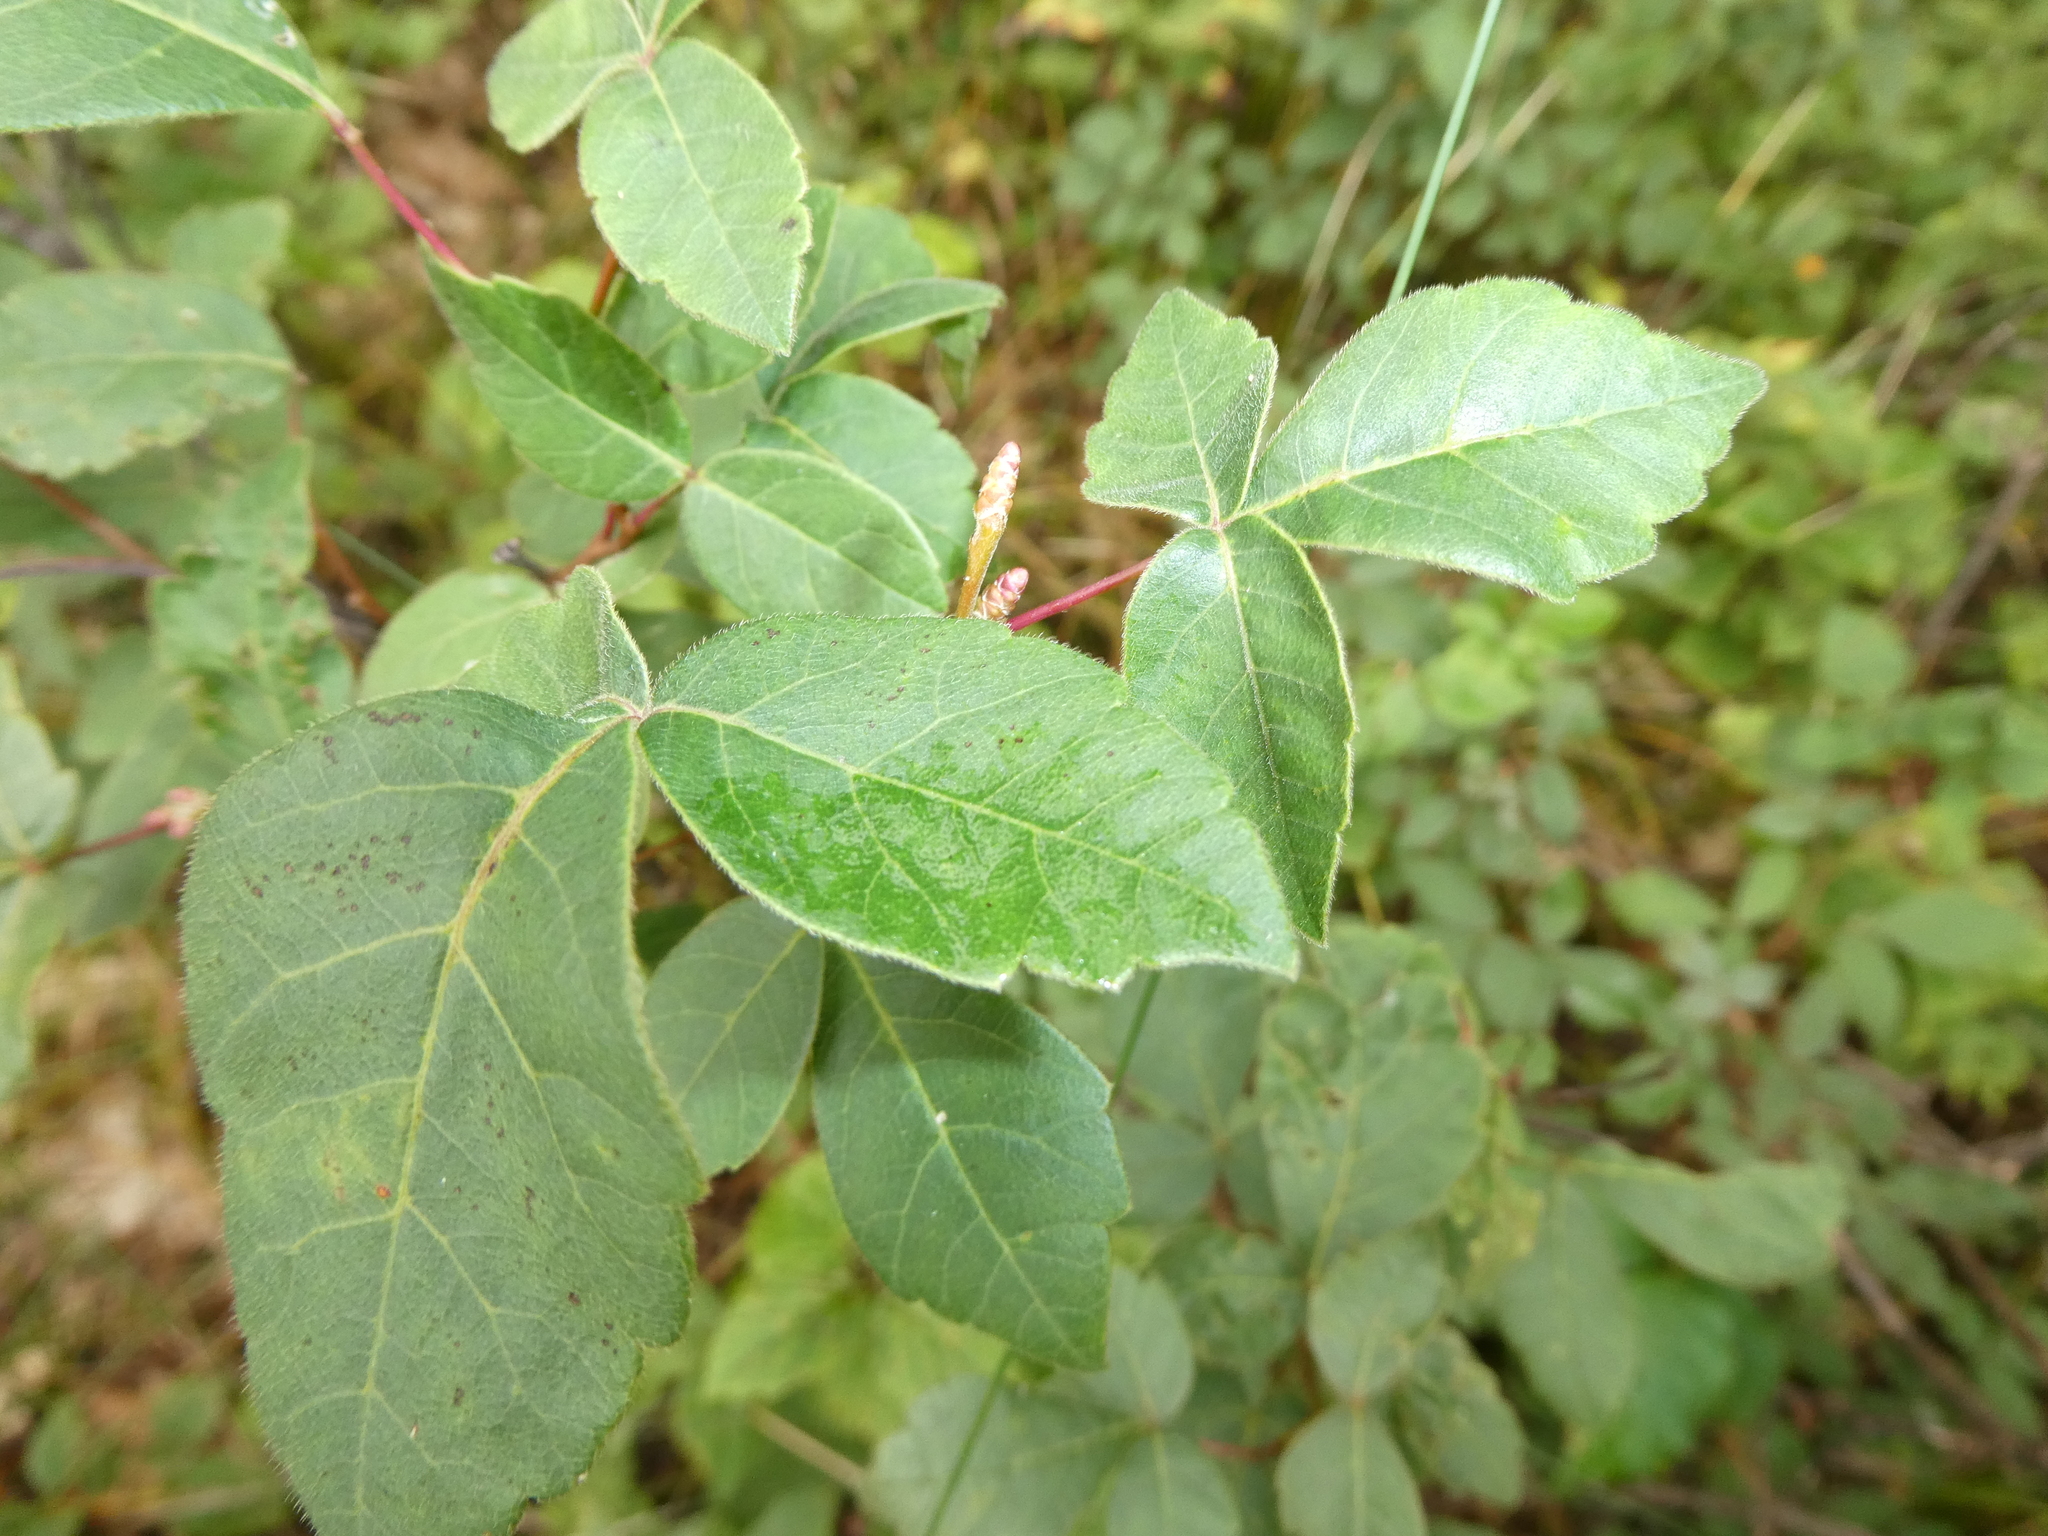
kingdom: Plantae
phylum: Tracheophyta
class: Magnoliopsida
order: Sapindales
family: Anacardiaceae
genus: Rhus
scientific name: Rhus aromatica
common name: Aromatic sumac
